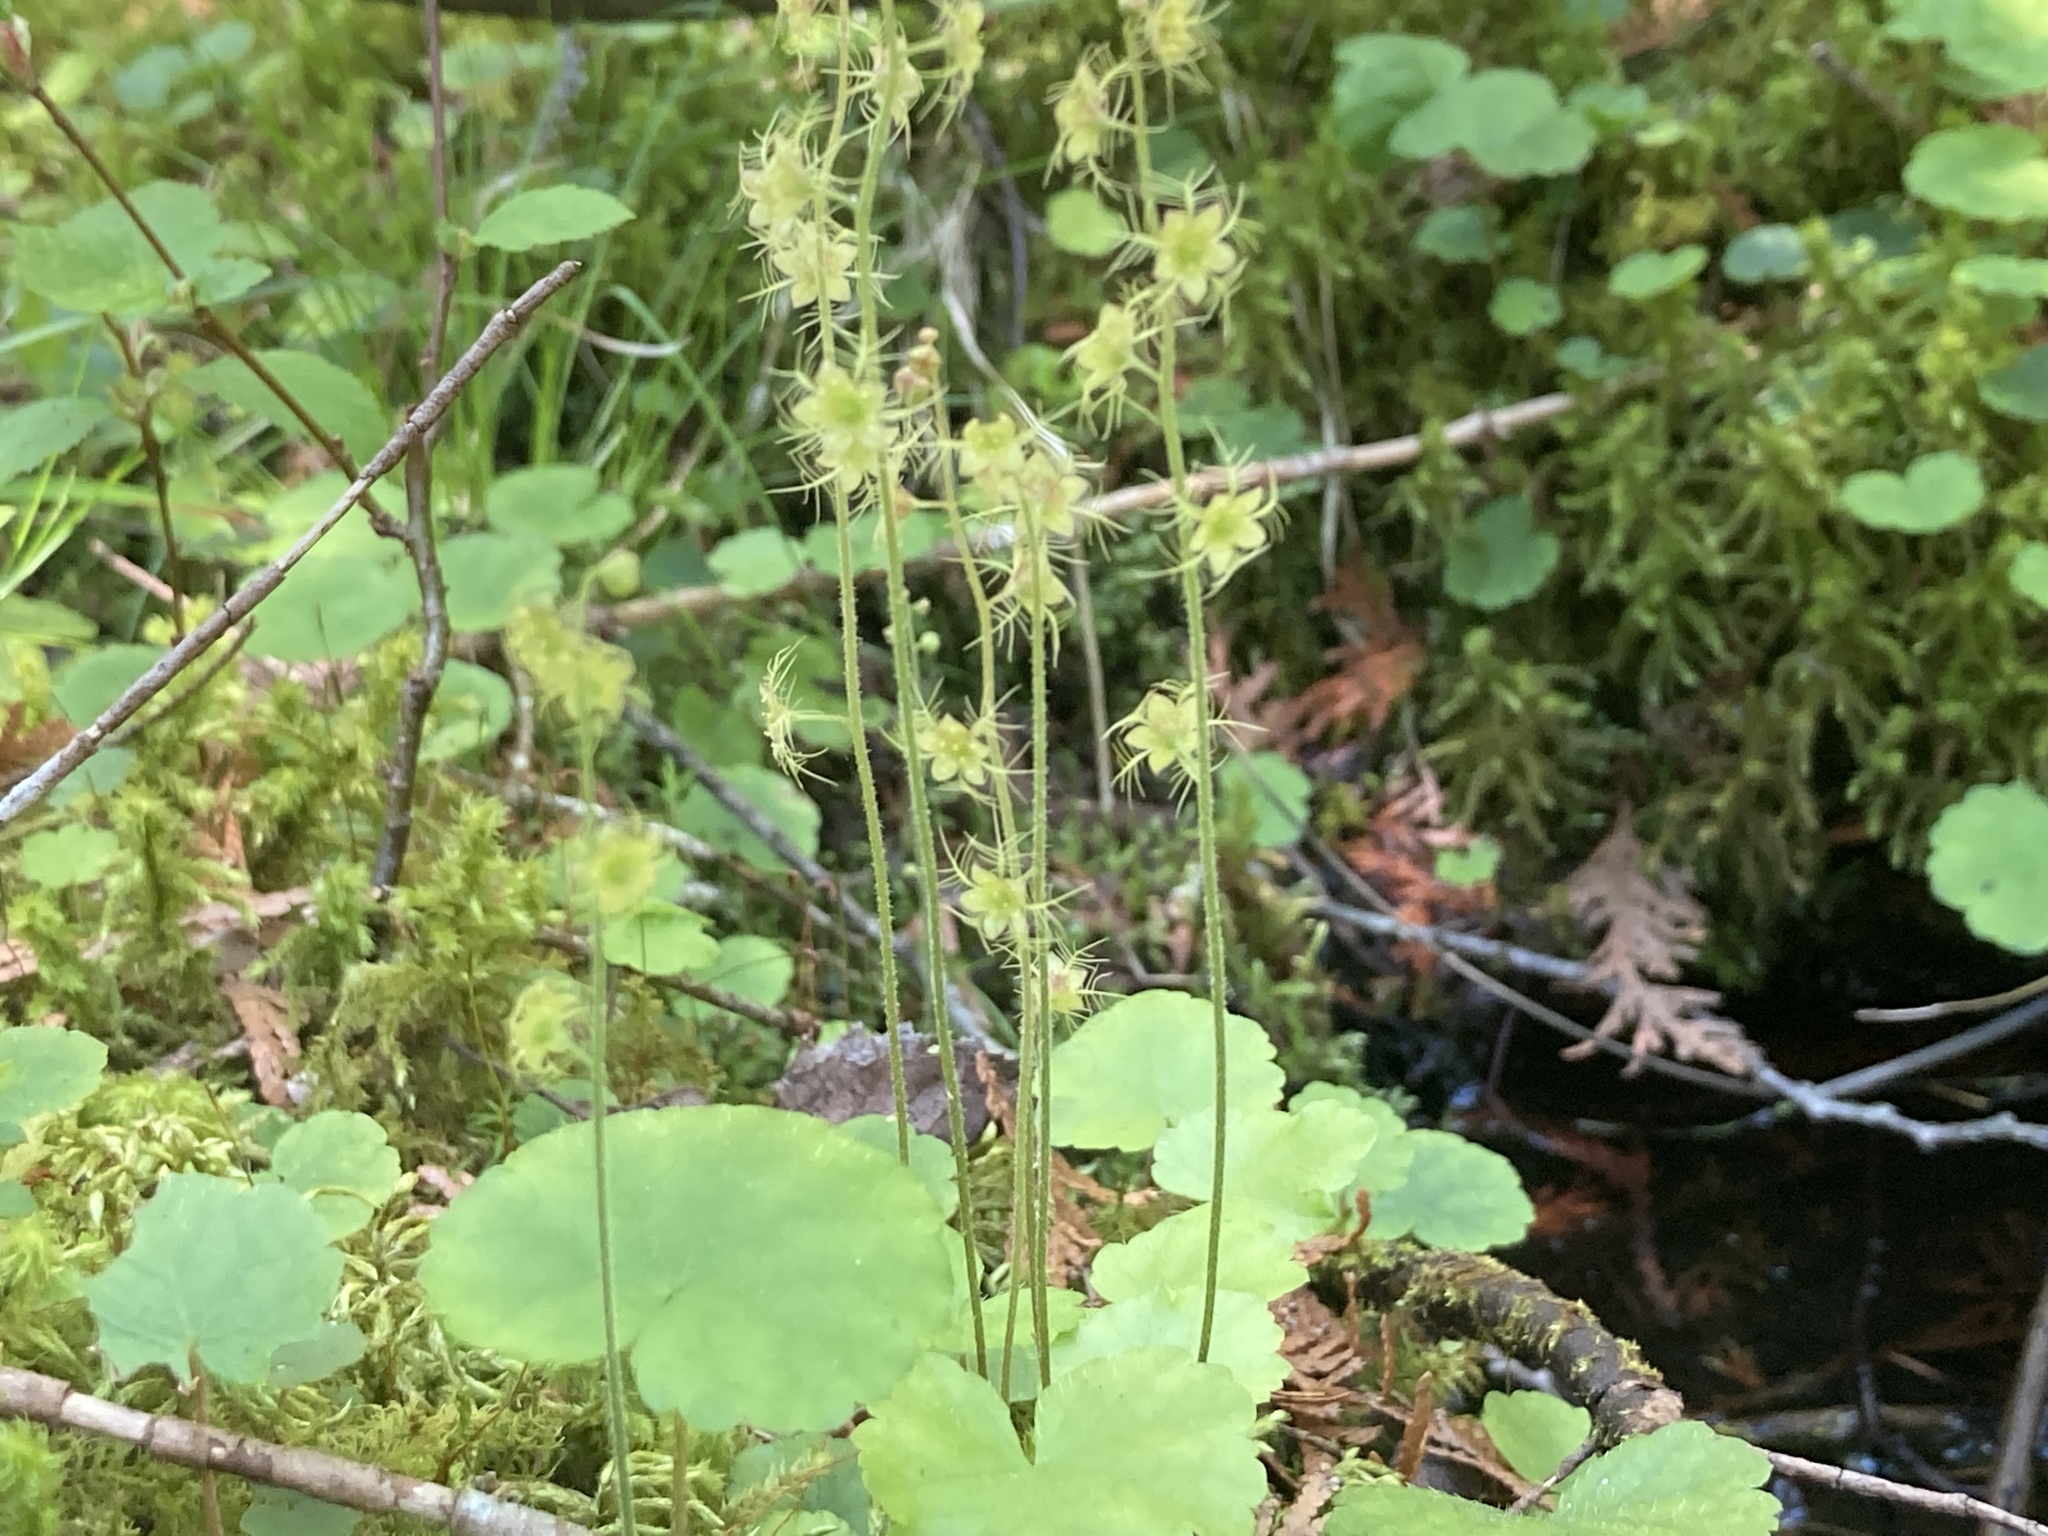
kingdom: Plantae
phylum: Tracheophyta
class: Magnoliopsida
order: Saxifragales
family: Saxifragaceae
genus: Mitella
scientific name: Mitella nuda
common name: Bare-stemmed bishop's-cap
